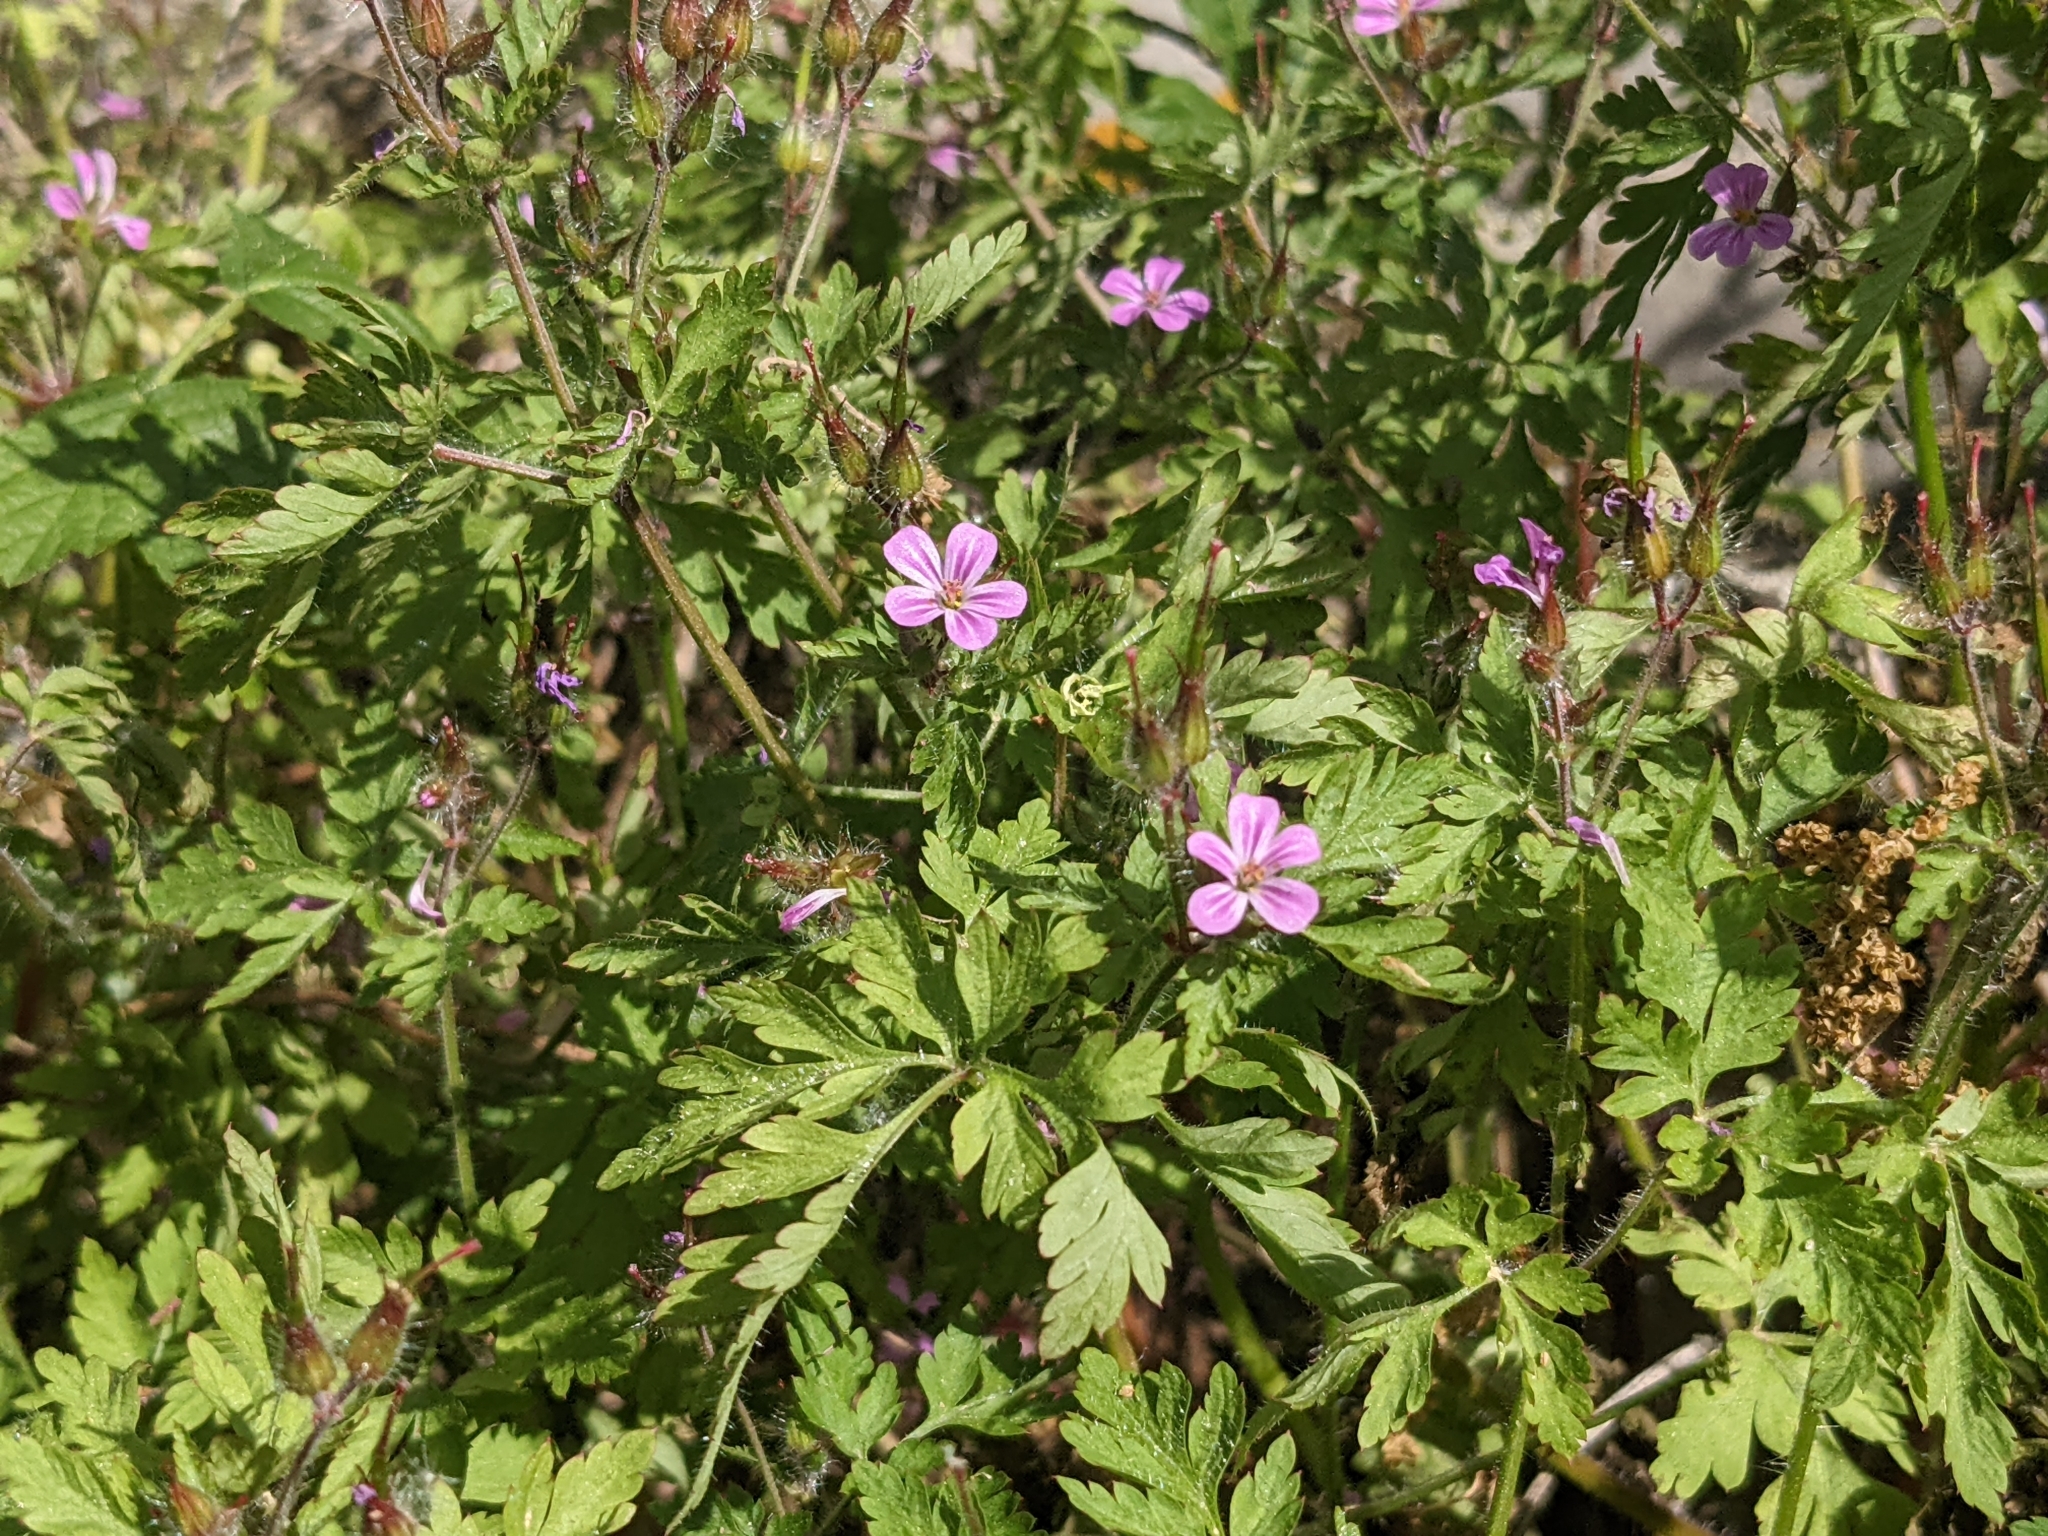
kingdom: Plantae
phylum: Tracheophyta
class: Magnoliopsida
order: Geraniales
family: Geraniaceae
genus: Geranium
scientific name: Geranium robertianum
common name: Herb-robert
